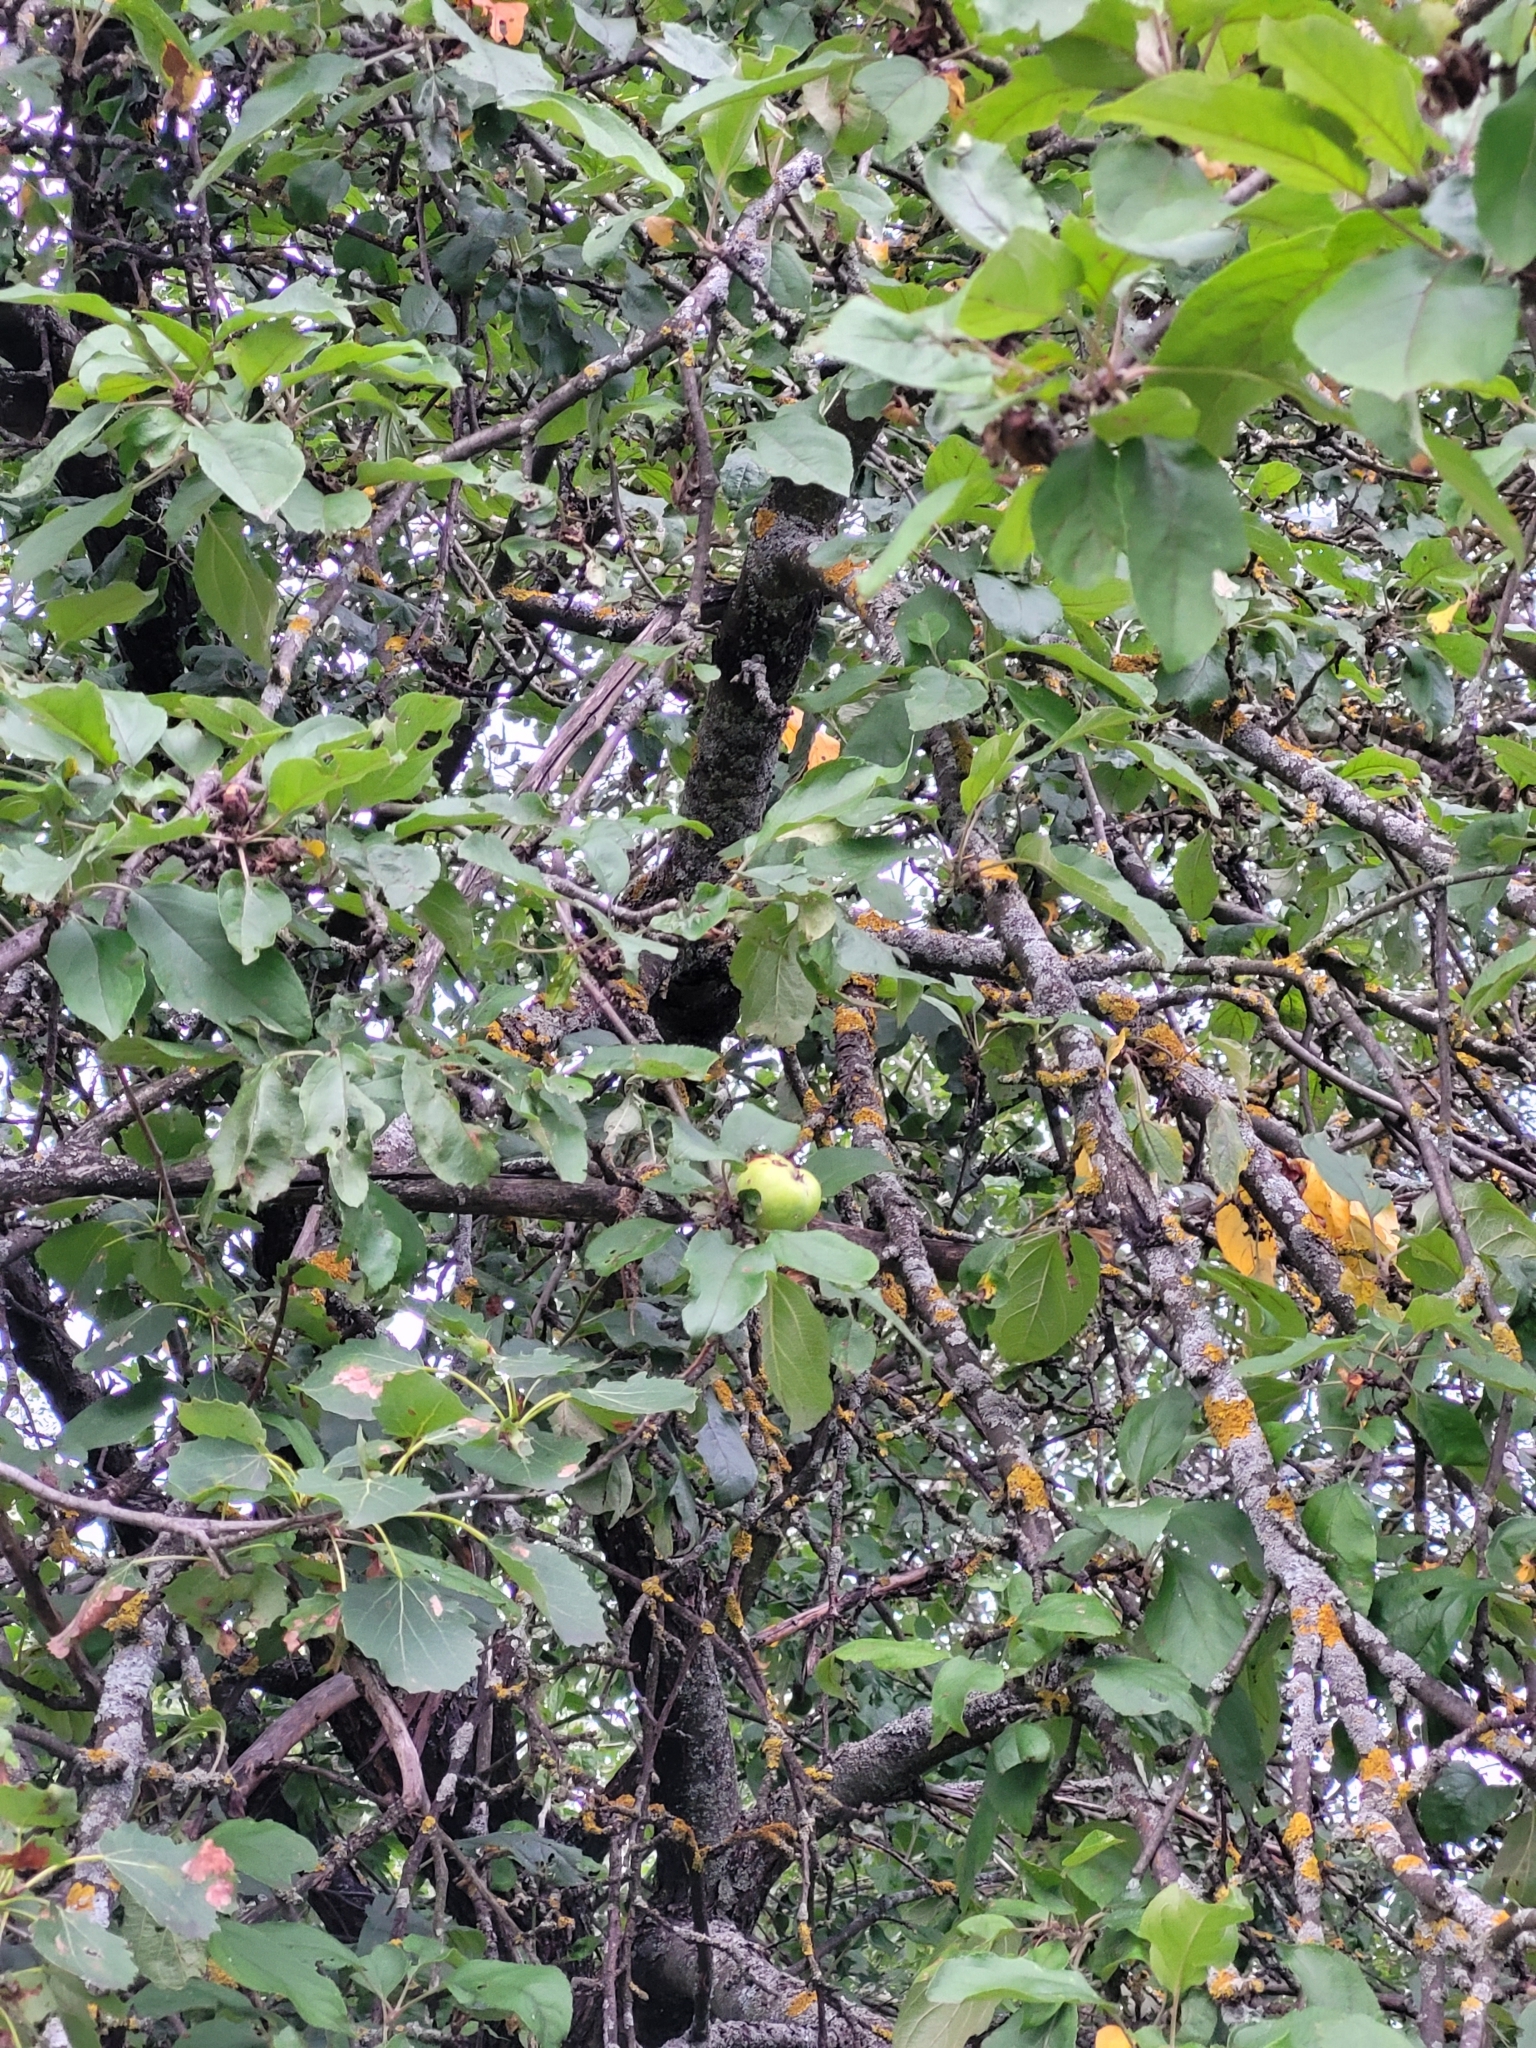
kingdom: Plantae
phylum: Tracheophyta
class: Magnoliopsida
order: Rosales
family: Rosaceae
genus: Malus
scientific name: Malus domestica
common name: Apple
